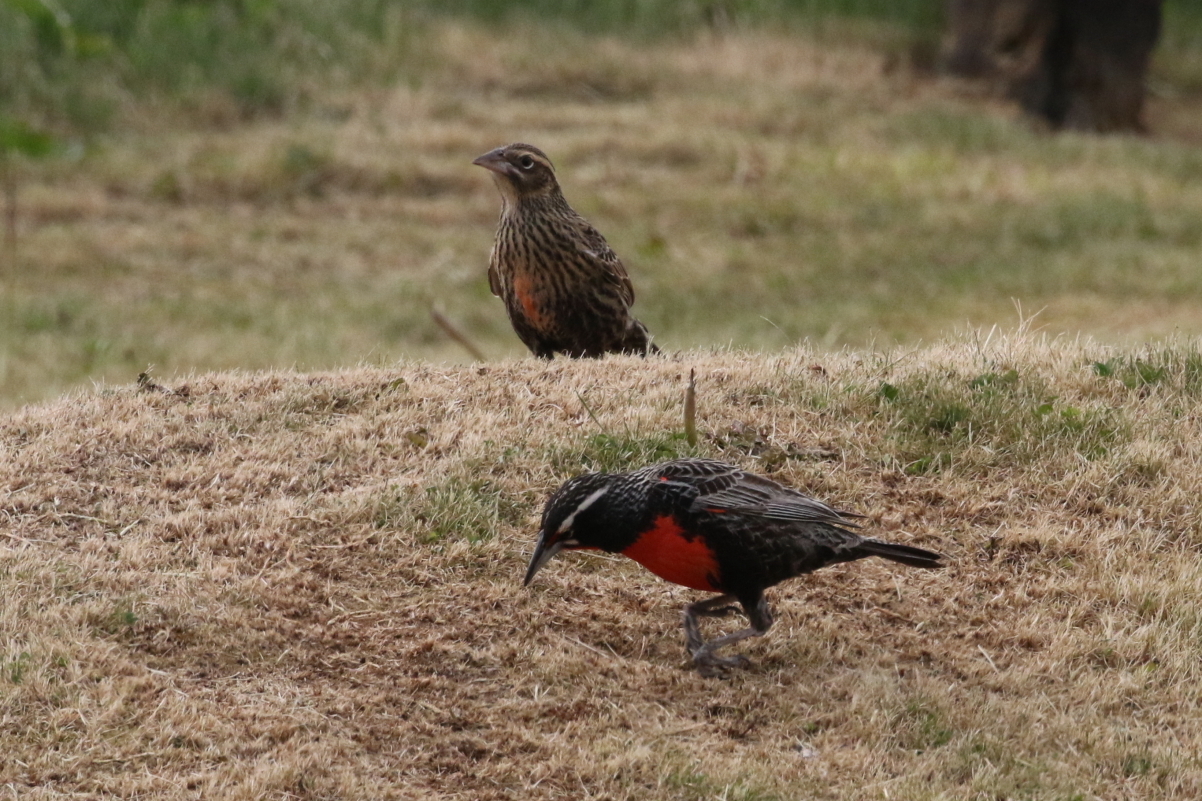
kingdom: Animalia
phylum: Chordata
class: Aves
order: Passeriformes
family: Icteridae
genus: Sturnella
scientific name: Sturnella loyca
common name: Long-tailed meadowlark
